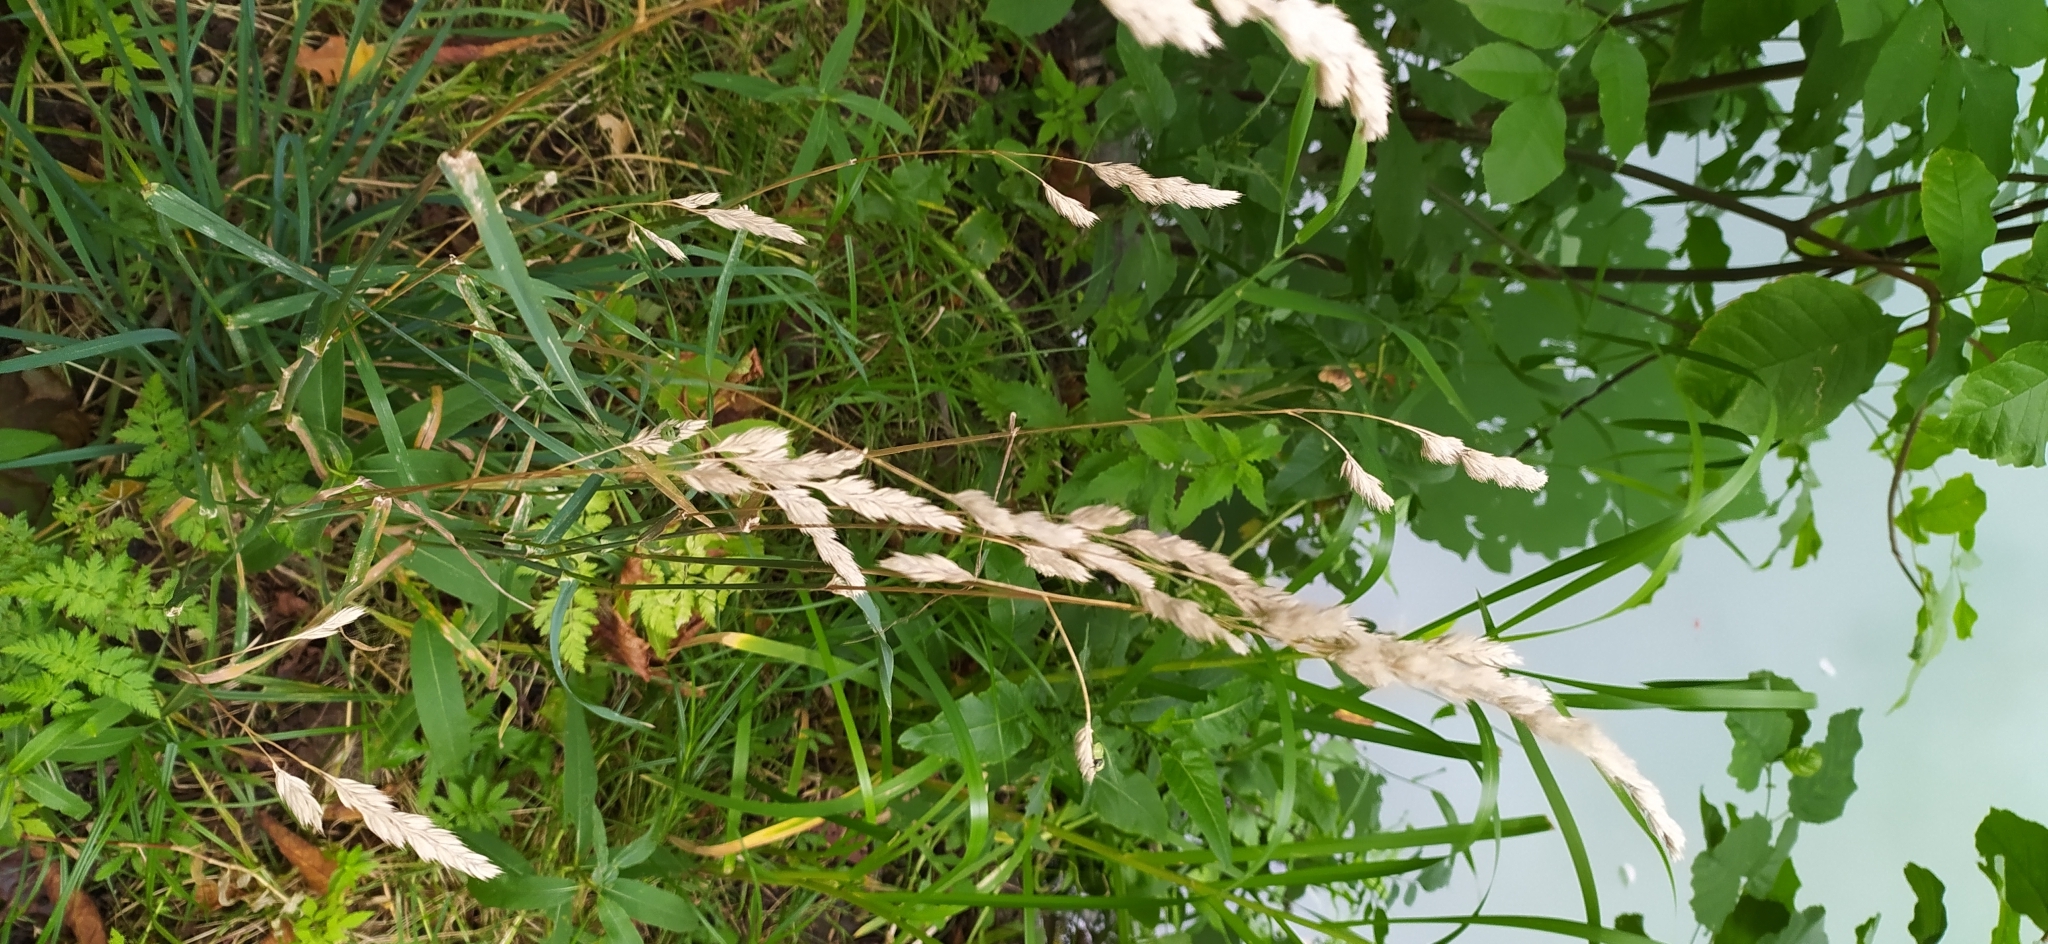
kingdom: Plantae
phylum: Tracheophyta
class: Liliopsida
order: Poales
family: Poaceae
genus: Dactylis
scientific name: Dactylis glomerata
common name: Orchardgrass
